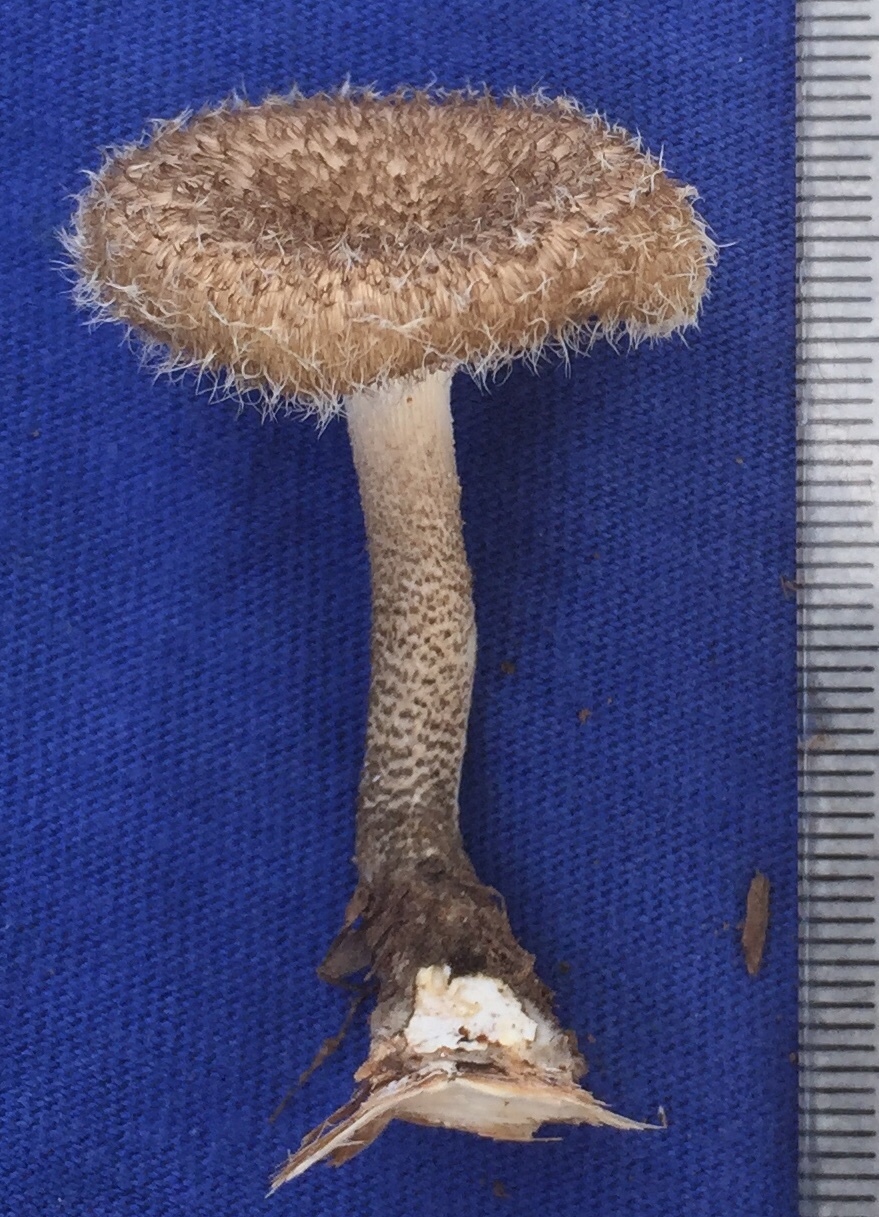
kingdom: Fungi
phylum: Basidiomycota
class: Agaricomycetes
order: Polyporales
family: Polyporaceae
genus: Lentinus
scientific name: Lentinus crinitus
